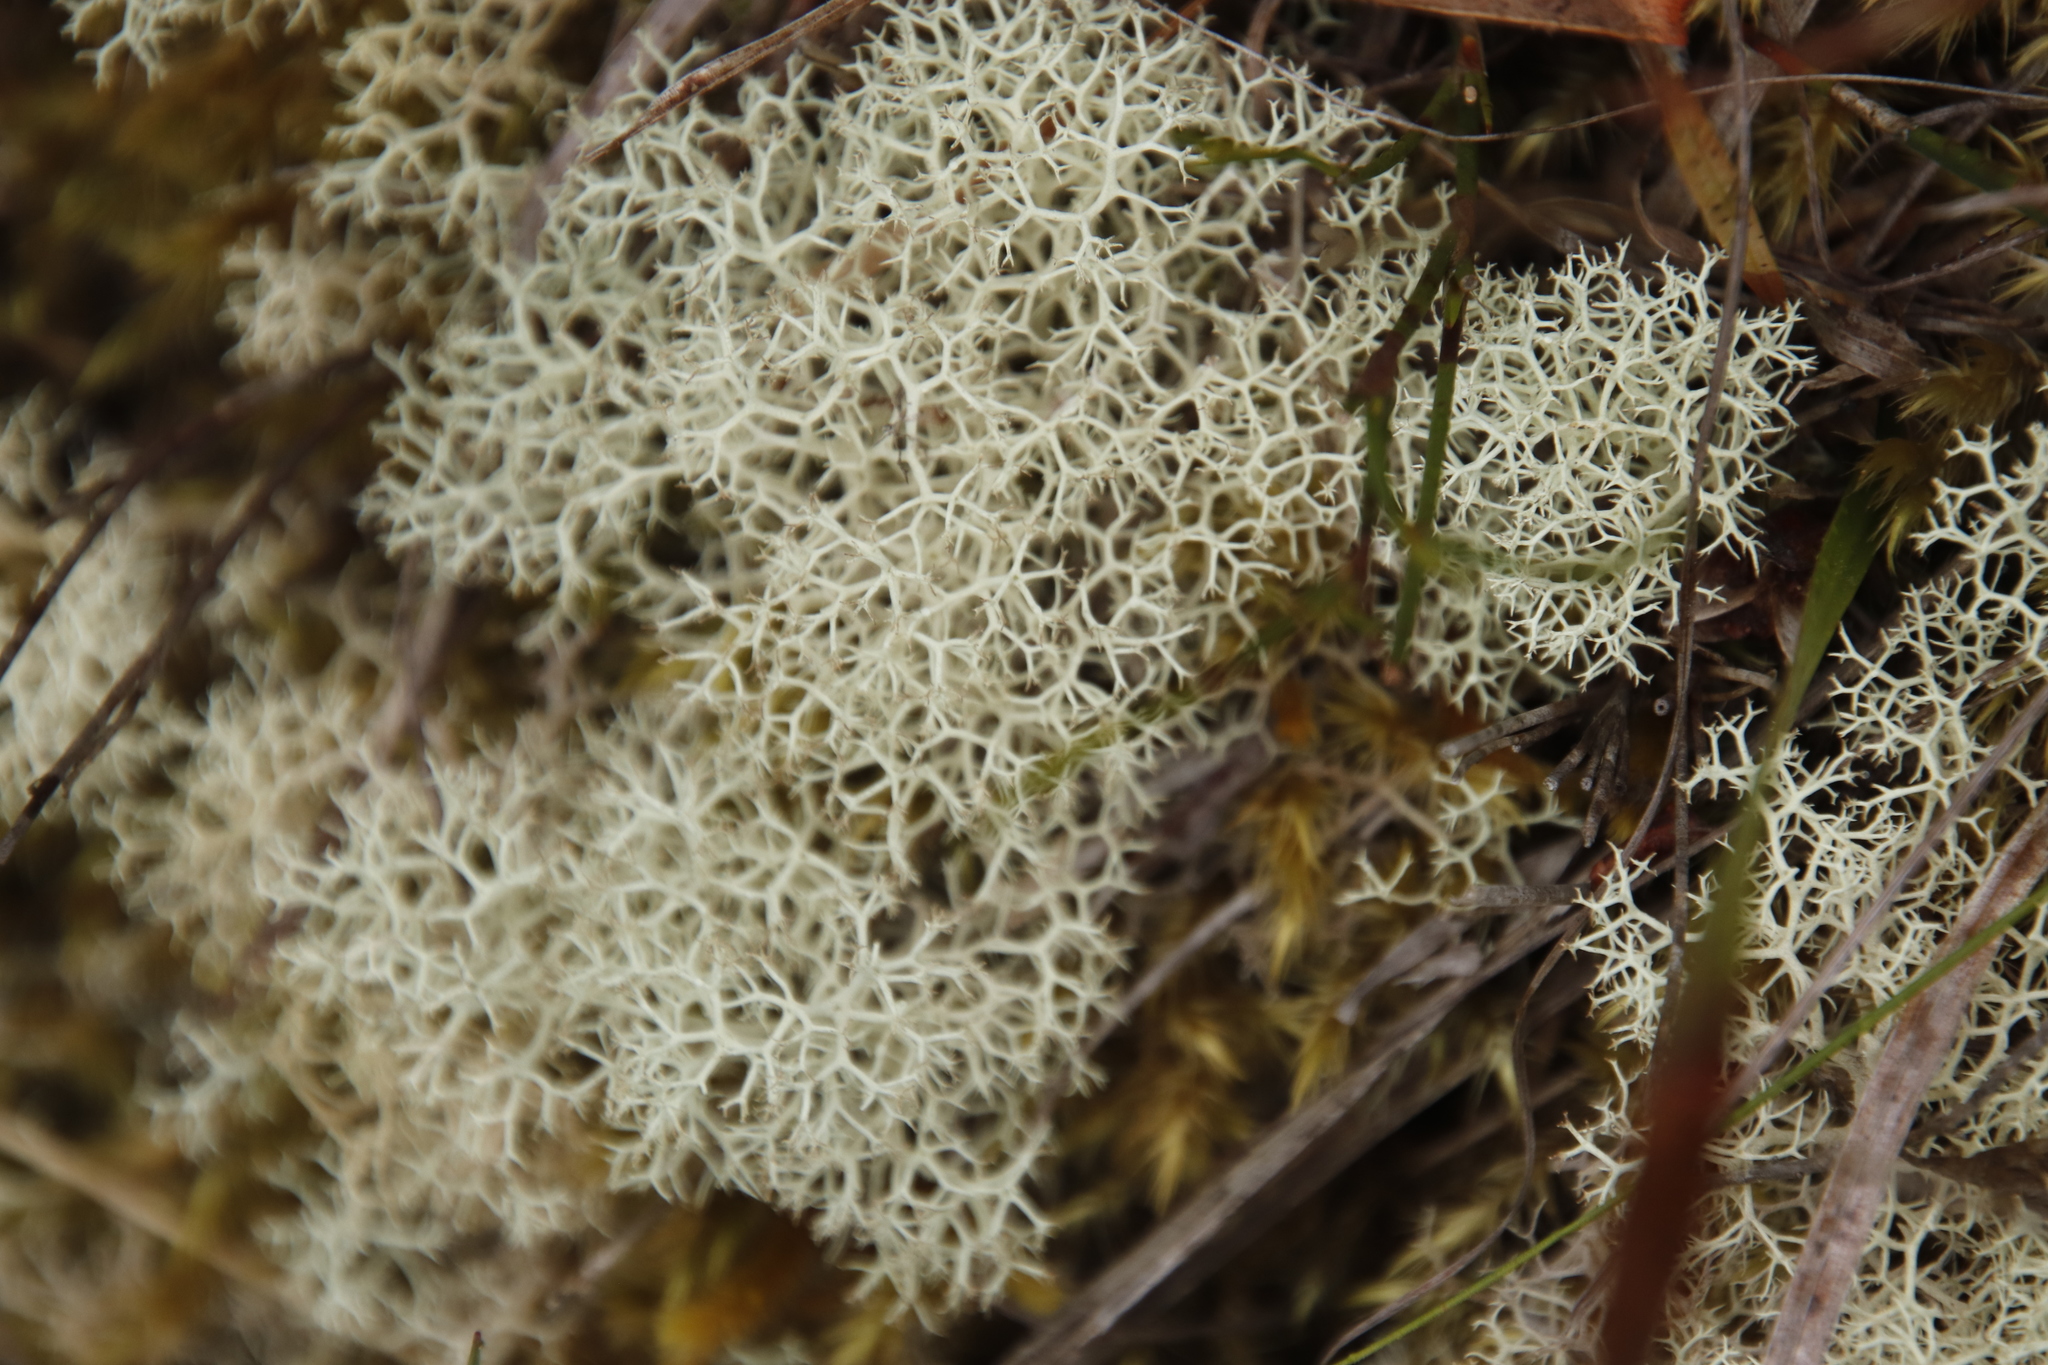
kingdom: Fungi
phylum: Ascomycota
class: Lecanoromycetes
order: Lecanorales
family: Cladoniaceae
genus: Cladonia
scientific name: Cladonia confusa
